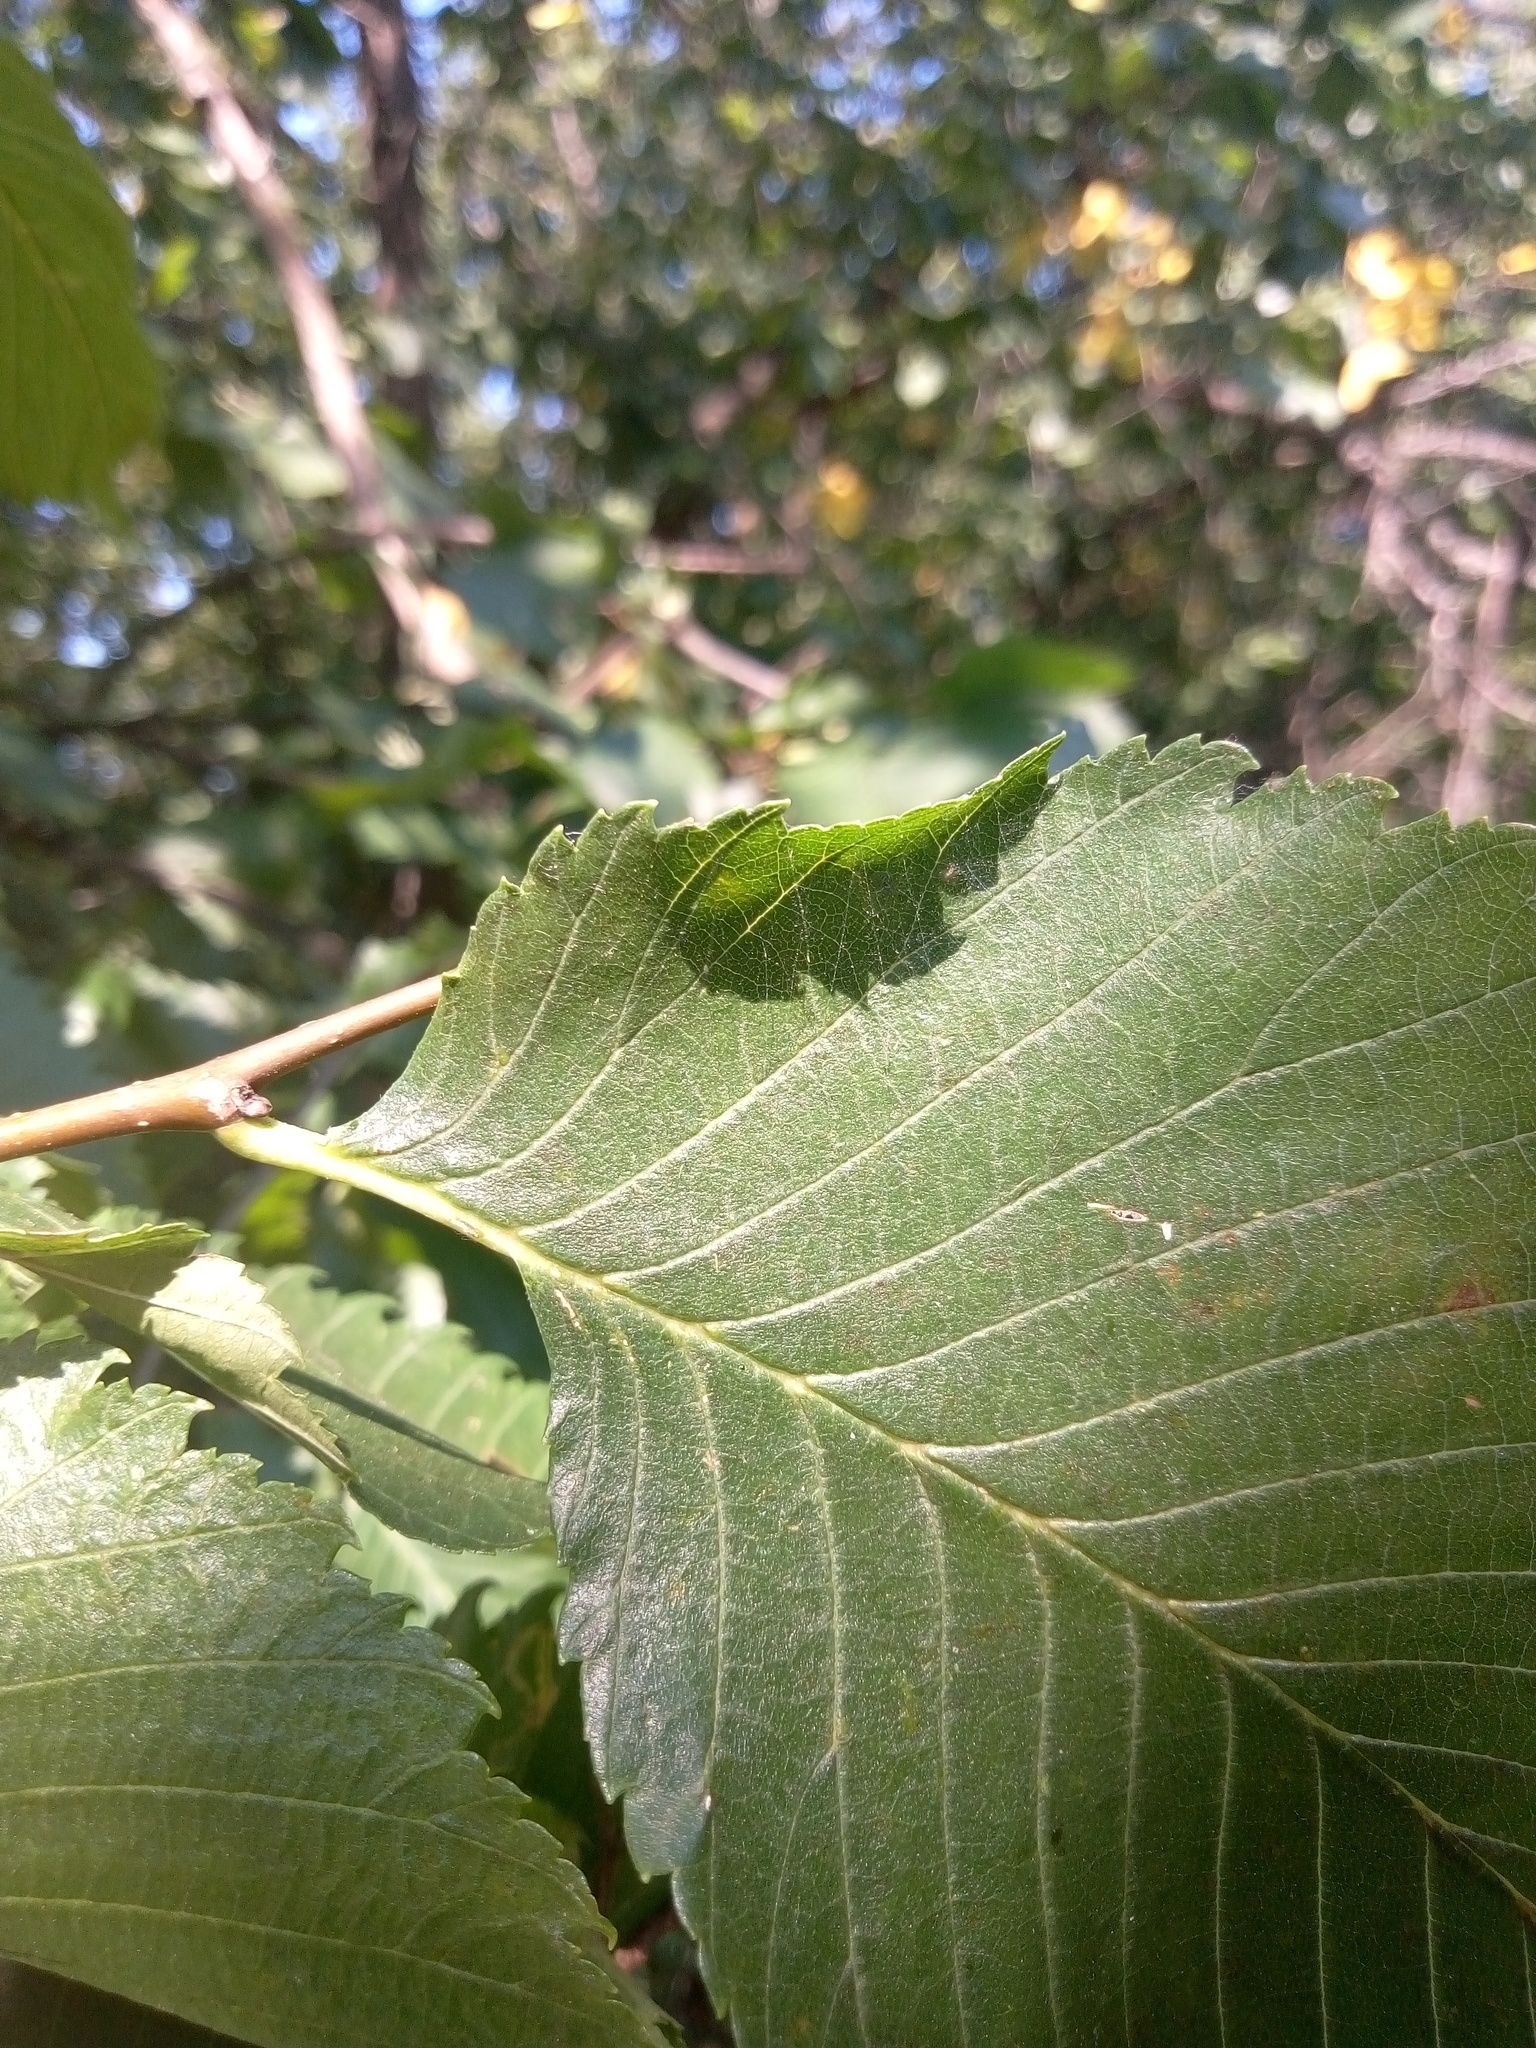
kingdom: Plantae
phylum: Tracheophyta
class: Magnoliopsida
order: Rosales
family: Ulmaceae
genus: Ulmus
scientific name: Ulmus laevis
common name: European white-elm
